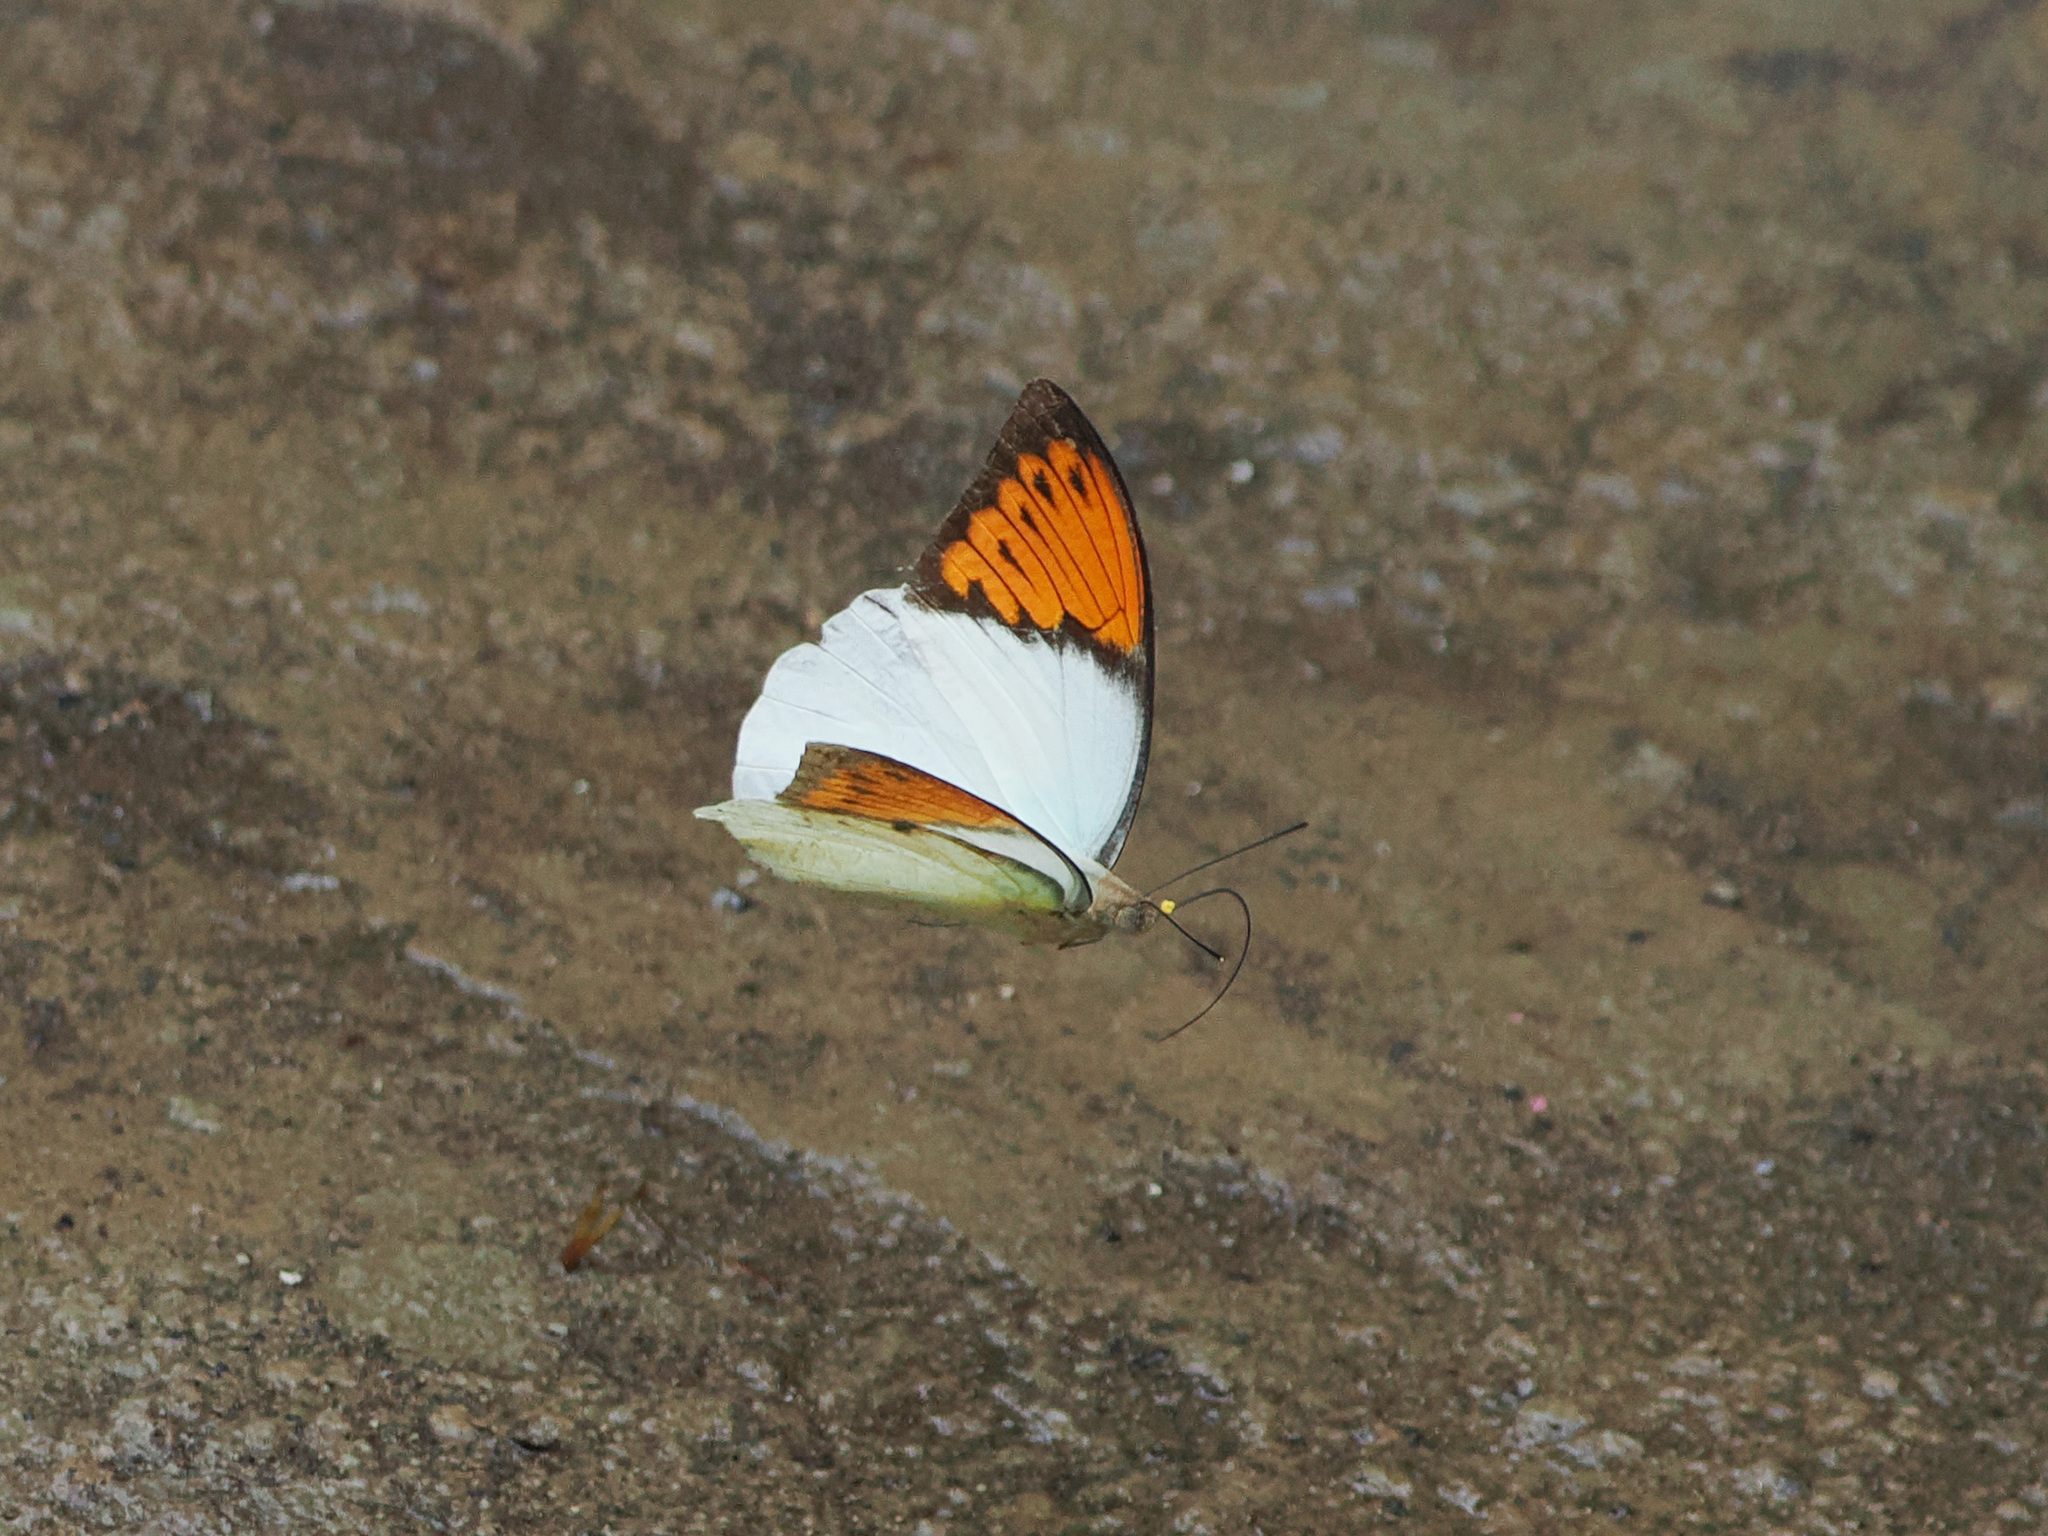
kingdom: Animalia
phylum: Arthropoda
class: Insecta
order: Lepidoptera
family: Pieridae
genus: Hebomoia
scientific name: Hebomoia glaucippe
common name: Great orange tip
